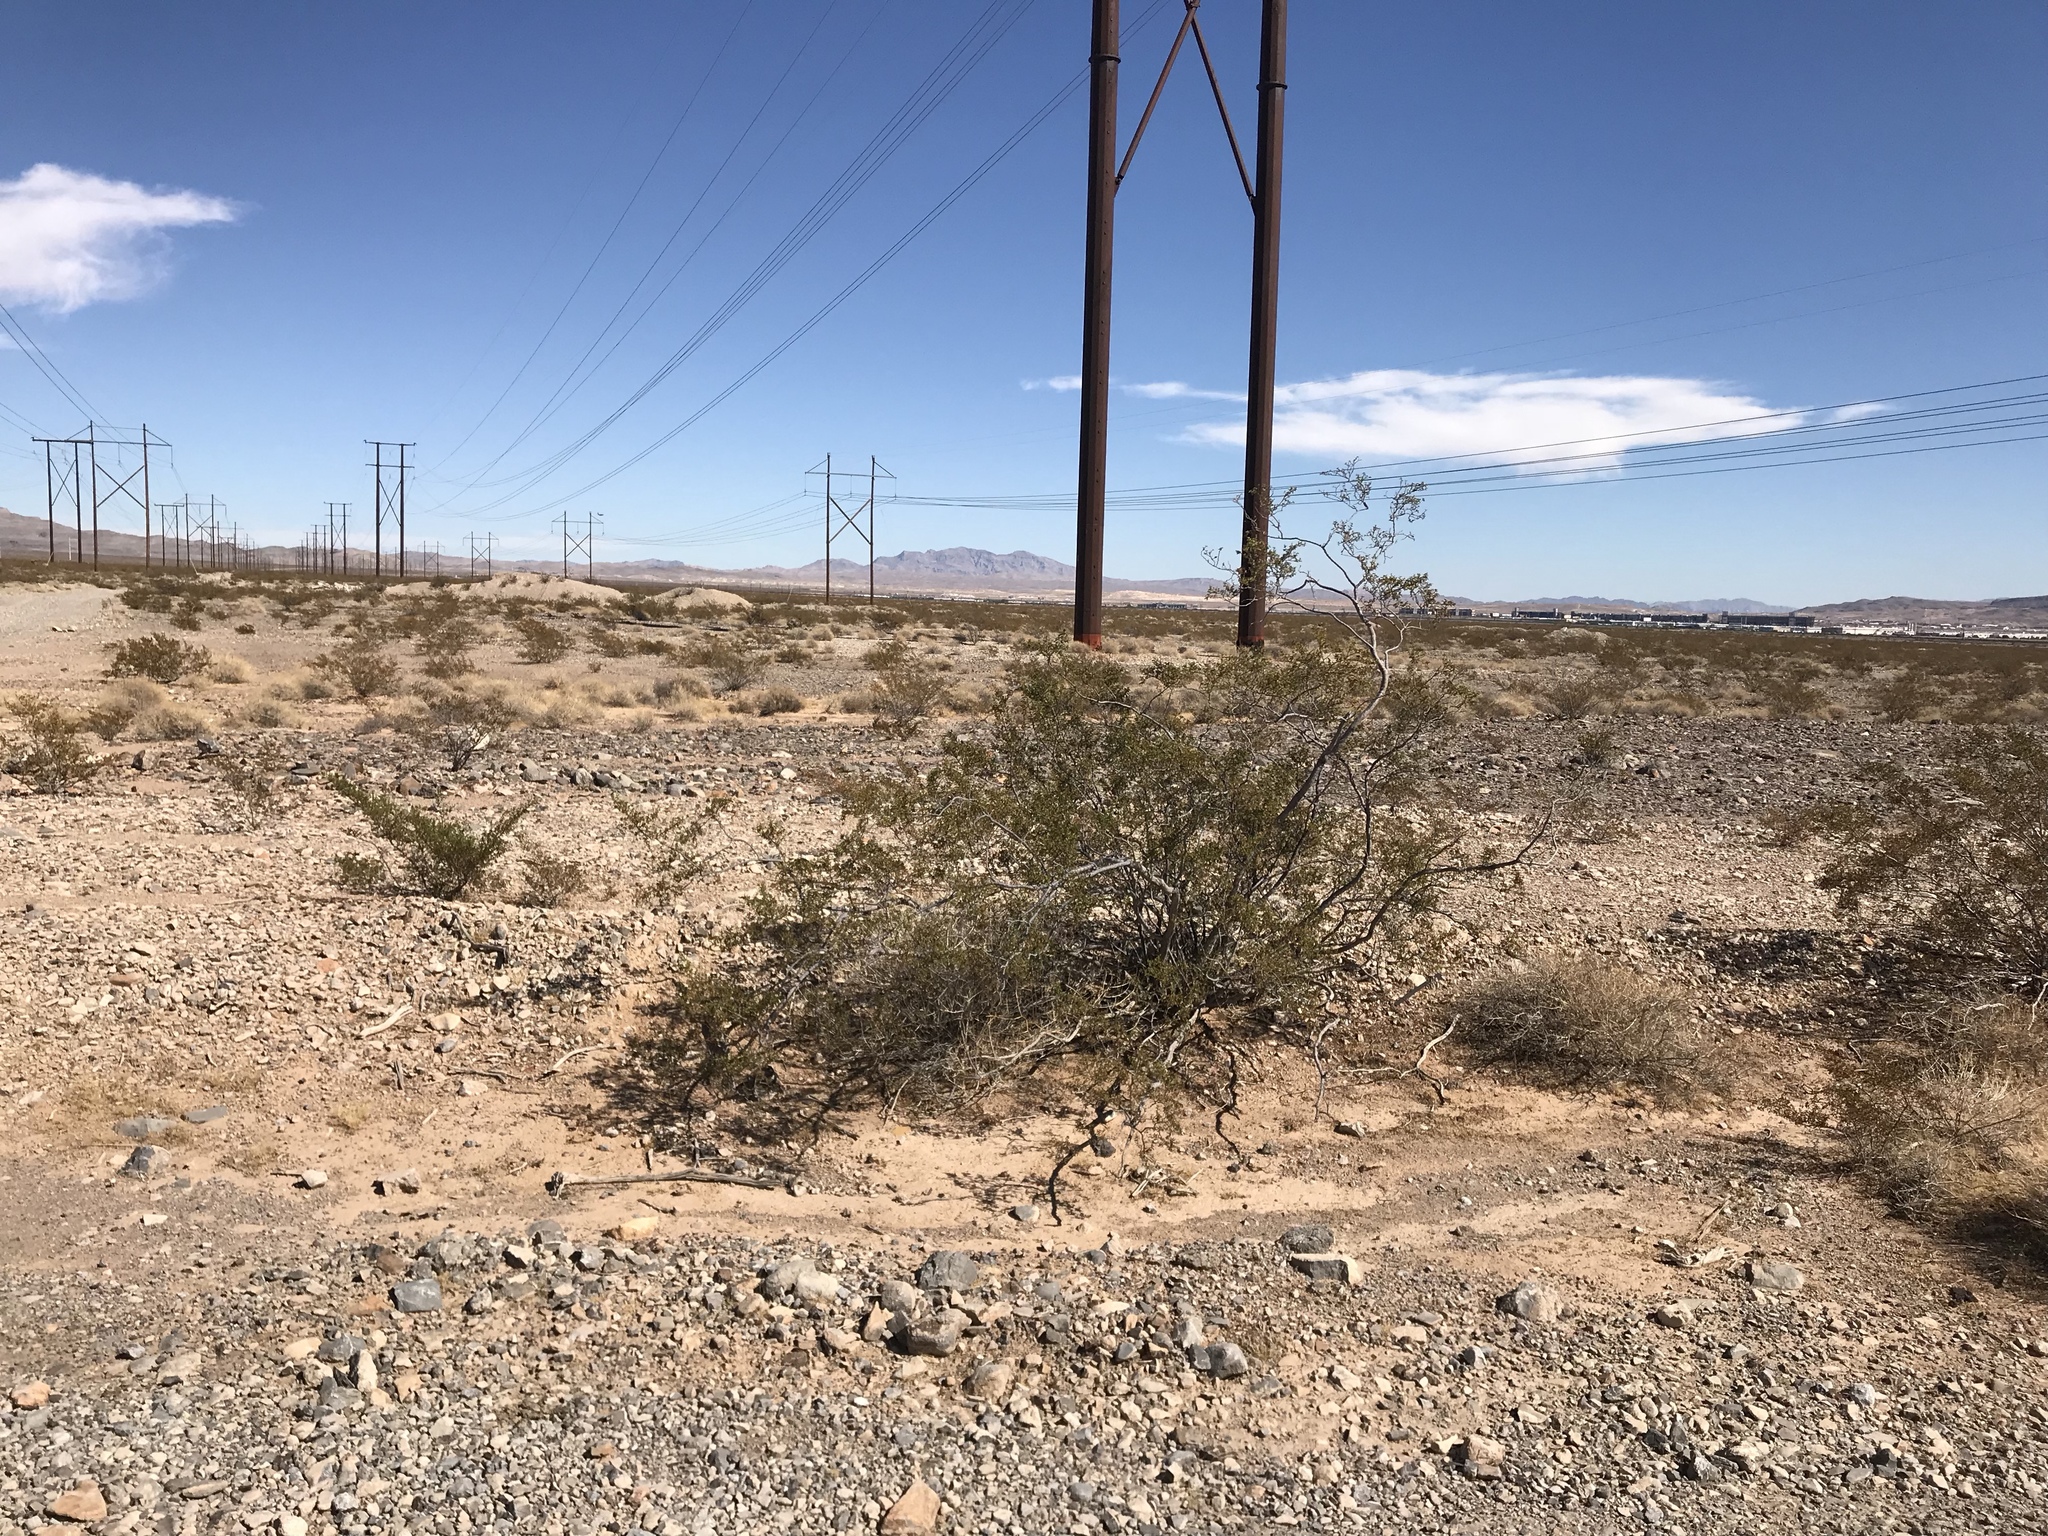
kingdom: Plantae
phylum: Tracheophyta
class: Magnoliopsida
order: Zygophyllales
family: Zygophyllaceae
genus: Larrea
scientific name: Larrea tridentata
